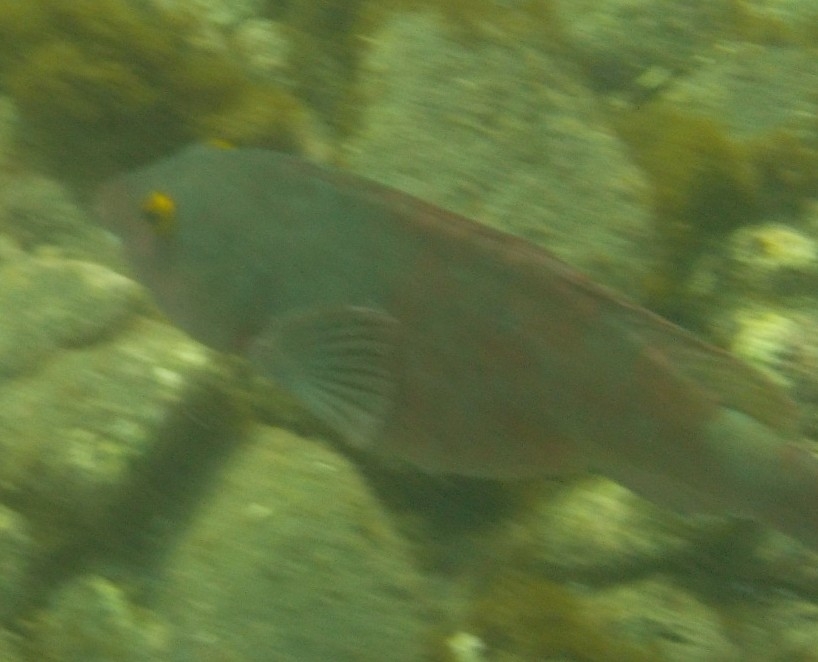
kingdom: Animalia
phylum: Chordata
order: Perciformes
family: Scaridae
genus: Sparisoma
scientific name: Sparisoma cretense
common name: Parrotfish
